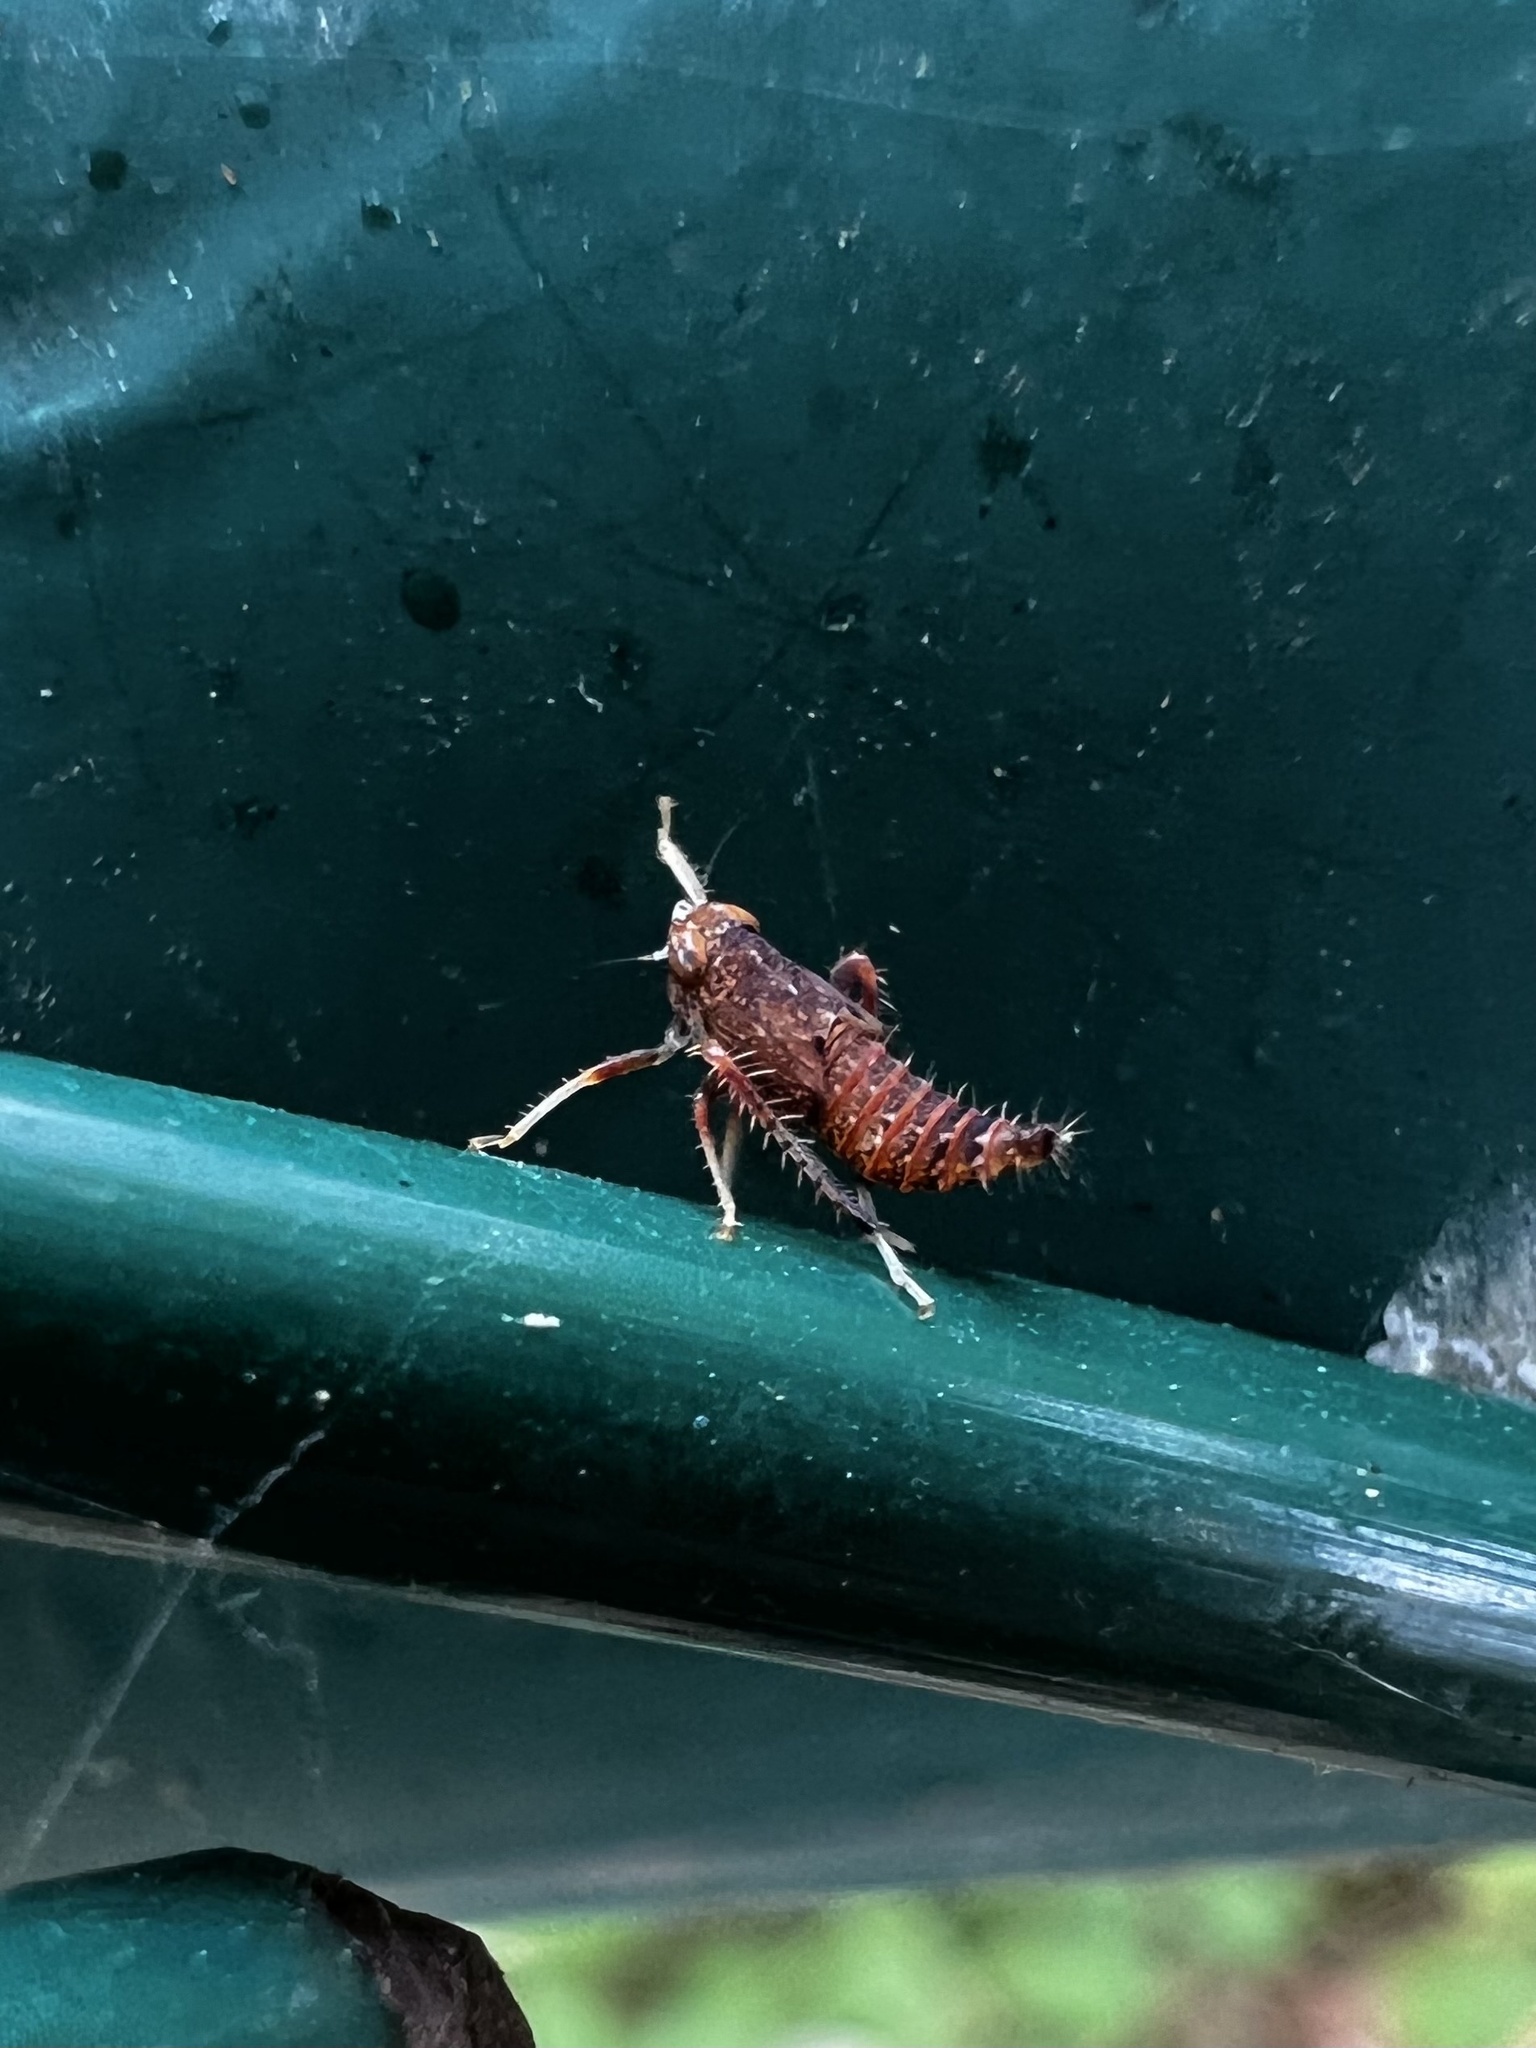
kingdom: Animalia
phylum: Arthropoda
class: Insecta
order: Hemiptera
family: Cicadellidae
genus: Orientus
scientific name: Orientus ishidae
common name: Japanese leafhopper
